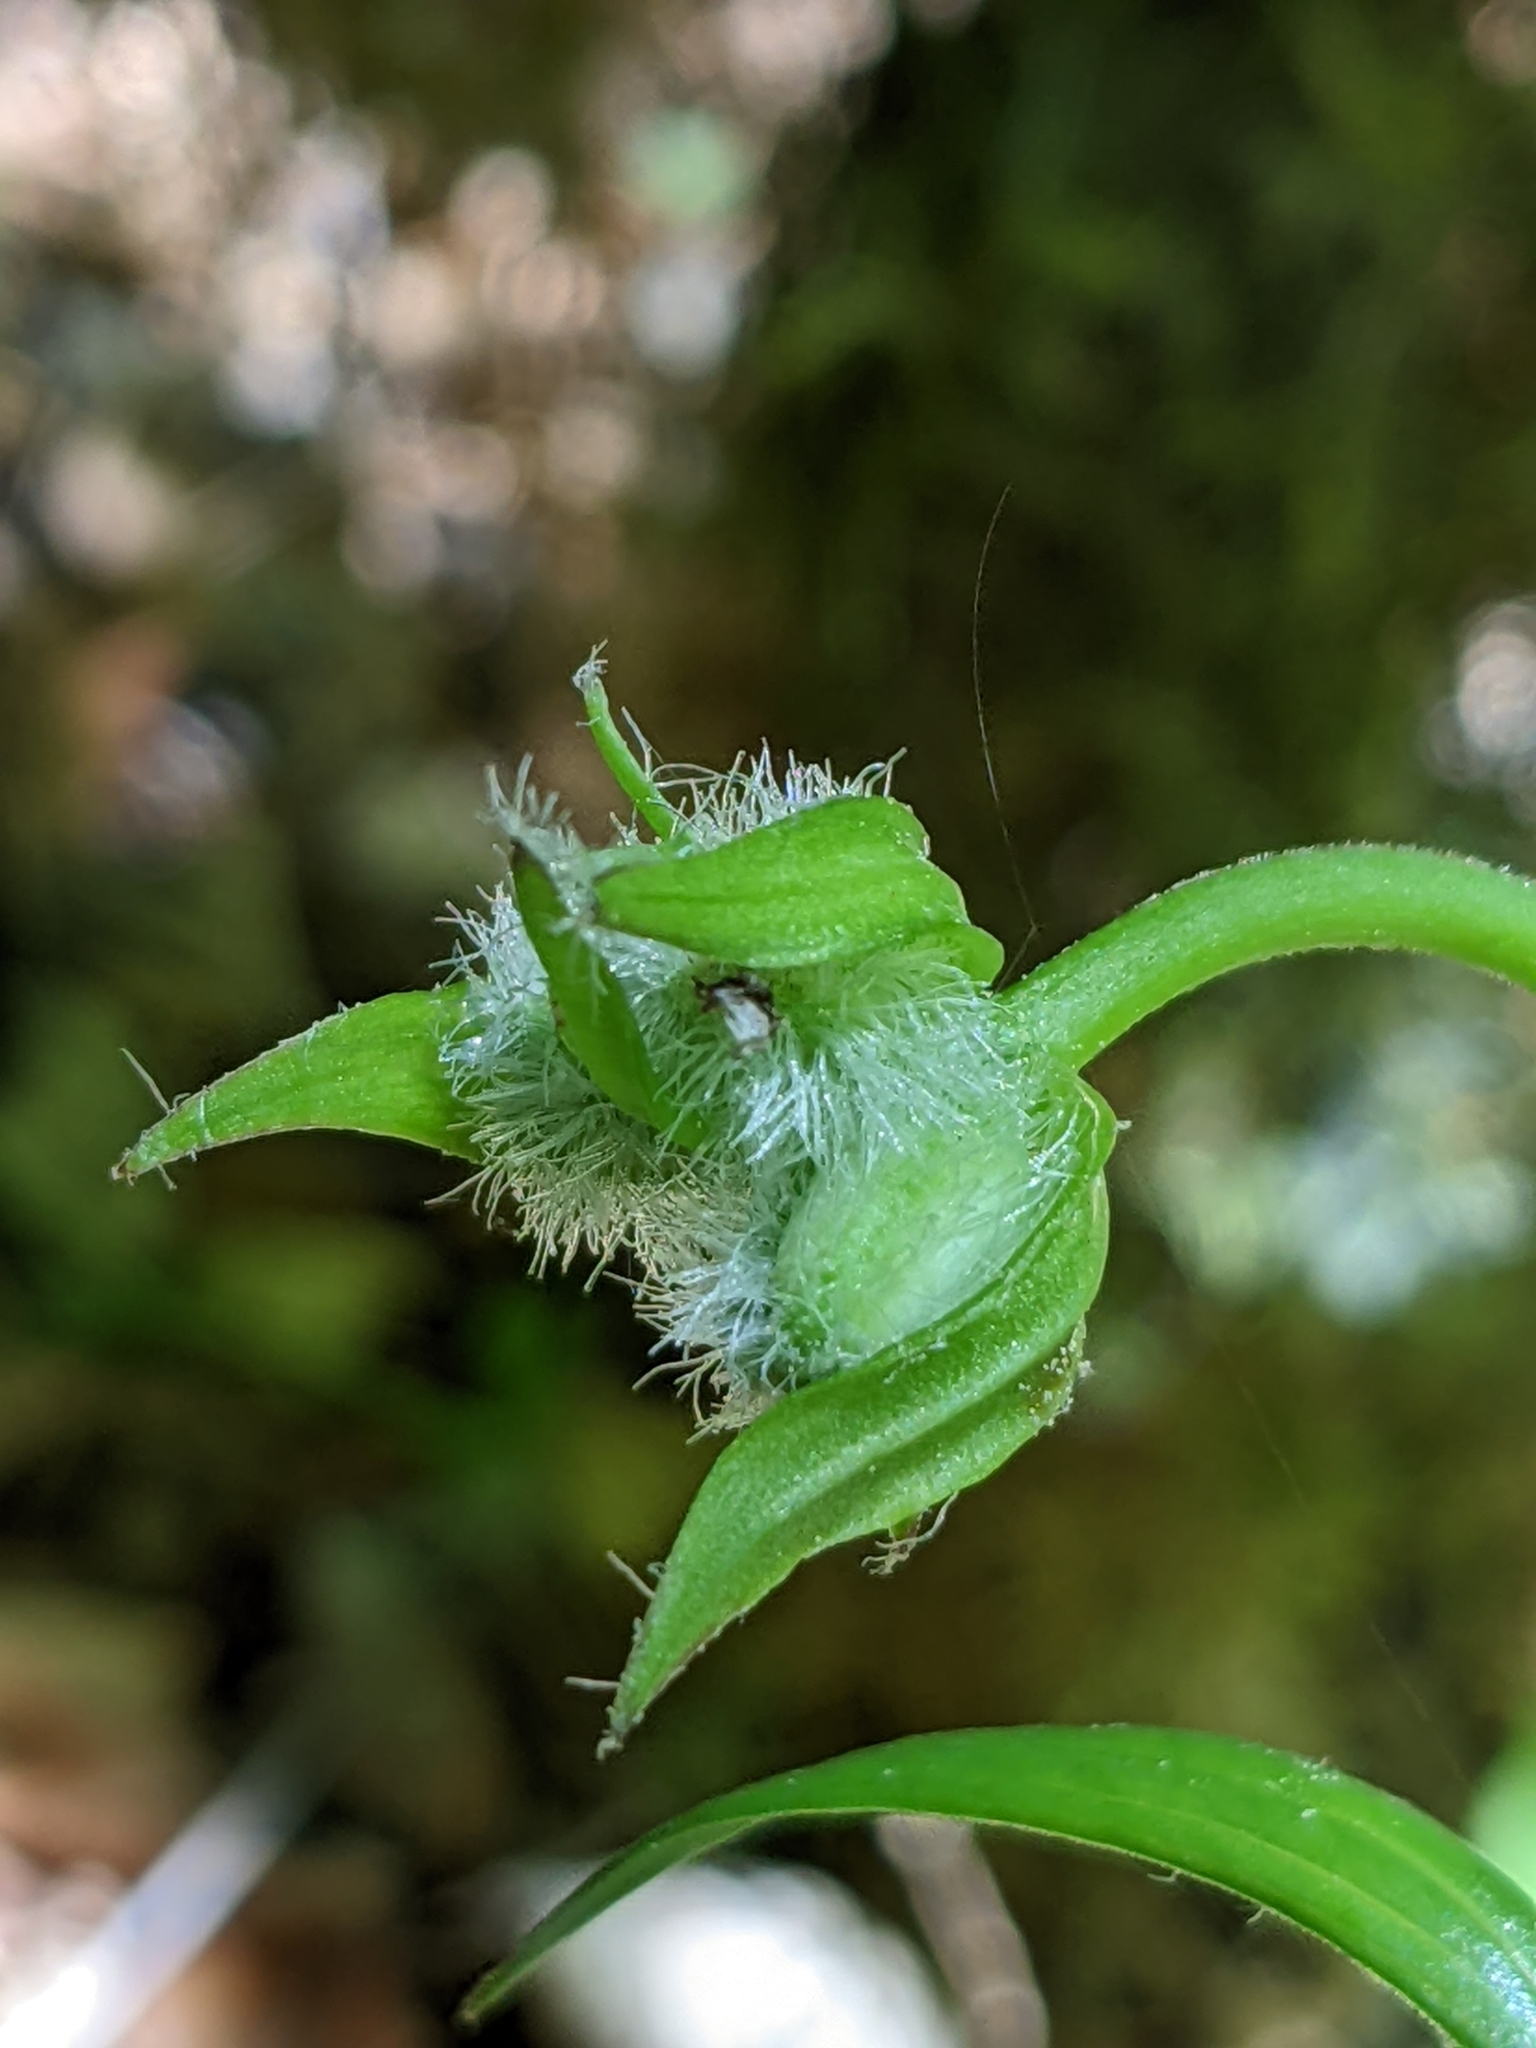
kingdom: Plantae
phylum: Tracheophyta
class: Liliopsida
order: Liliales
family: Liliaceae
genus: Lilium
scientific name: Lilium martagon
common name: Martagon lily
